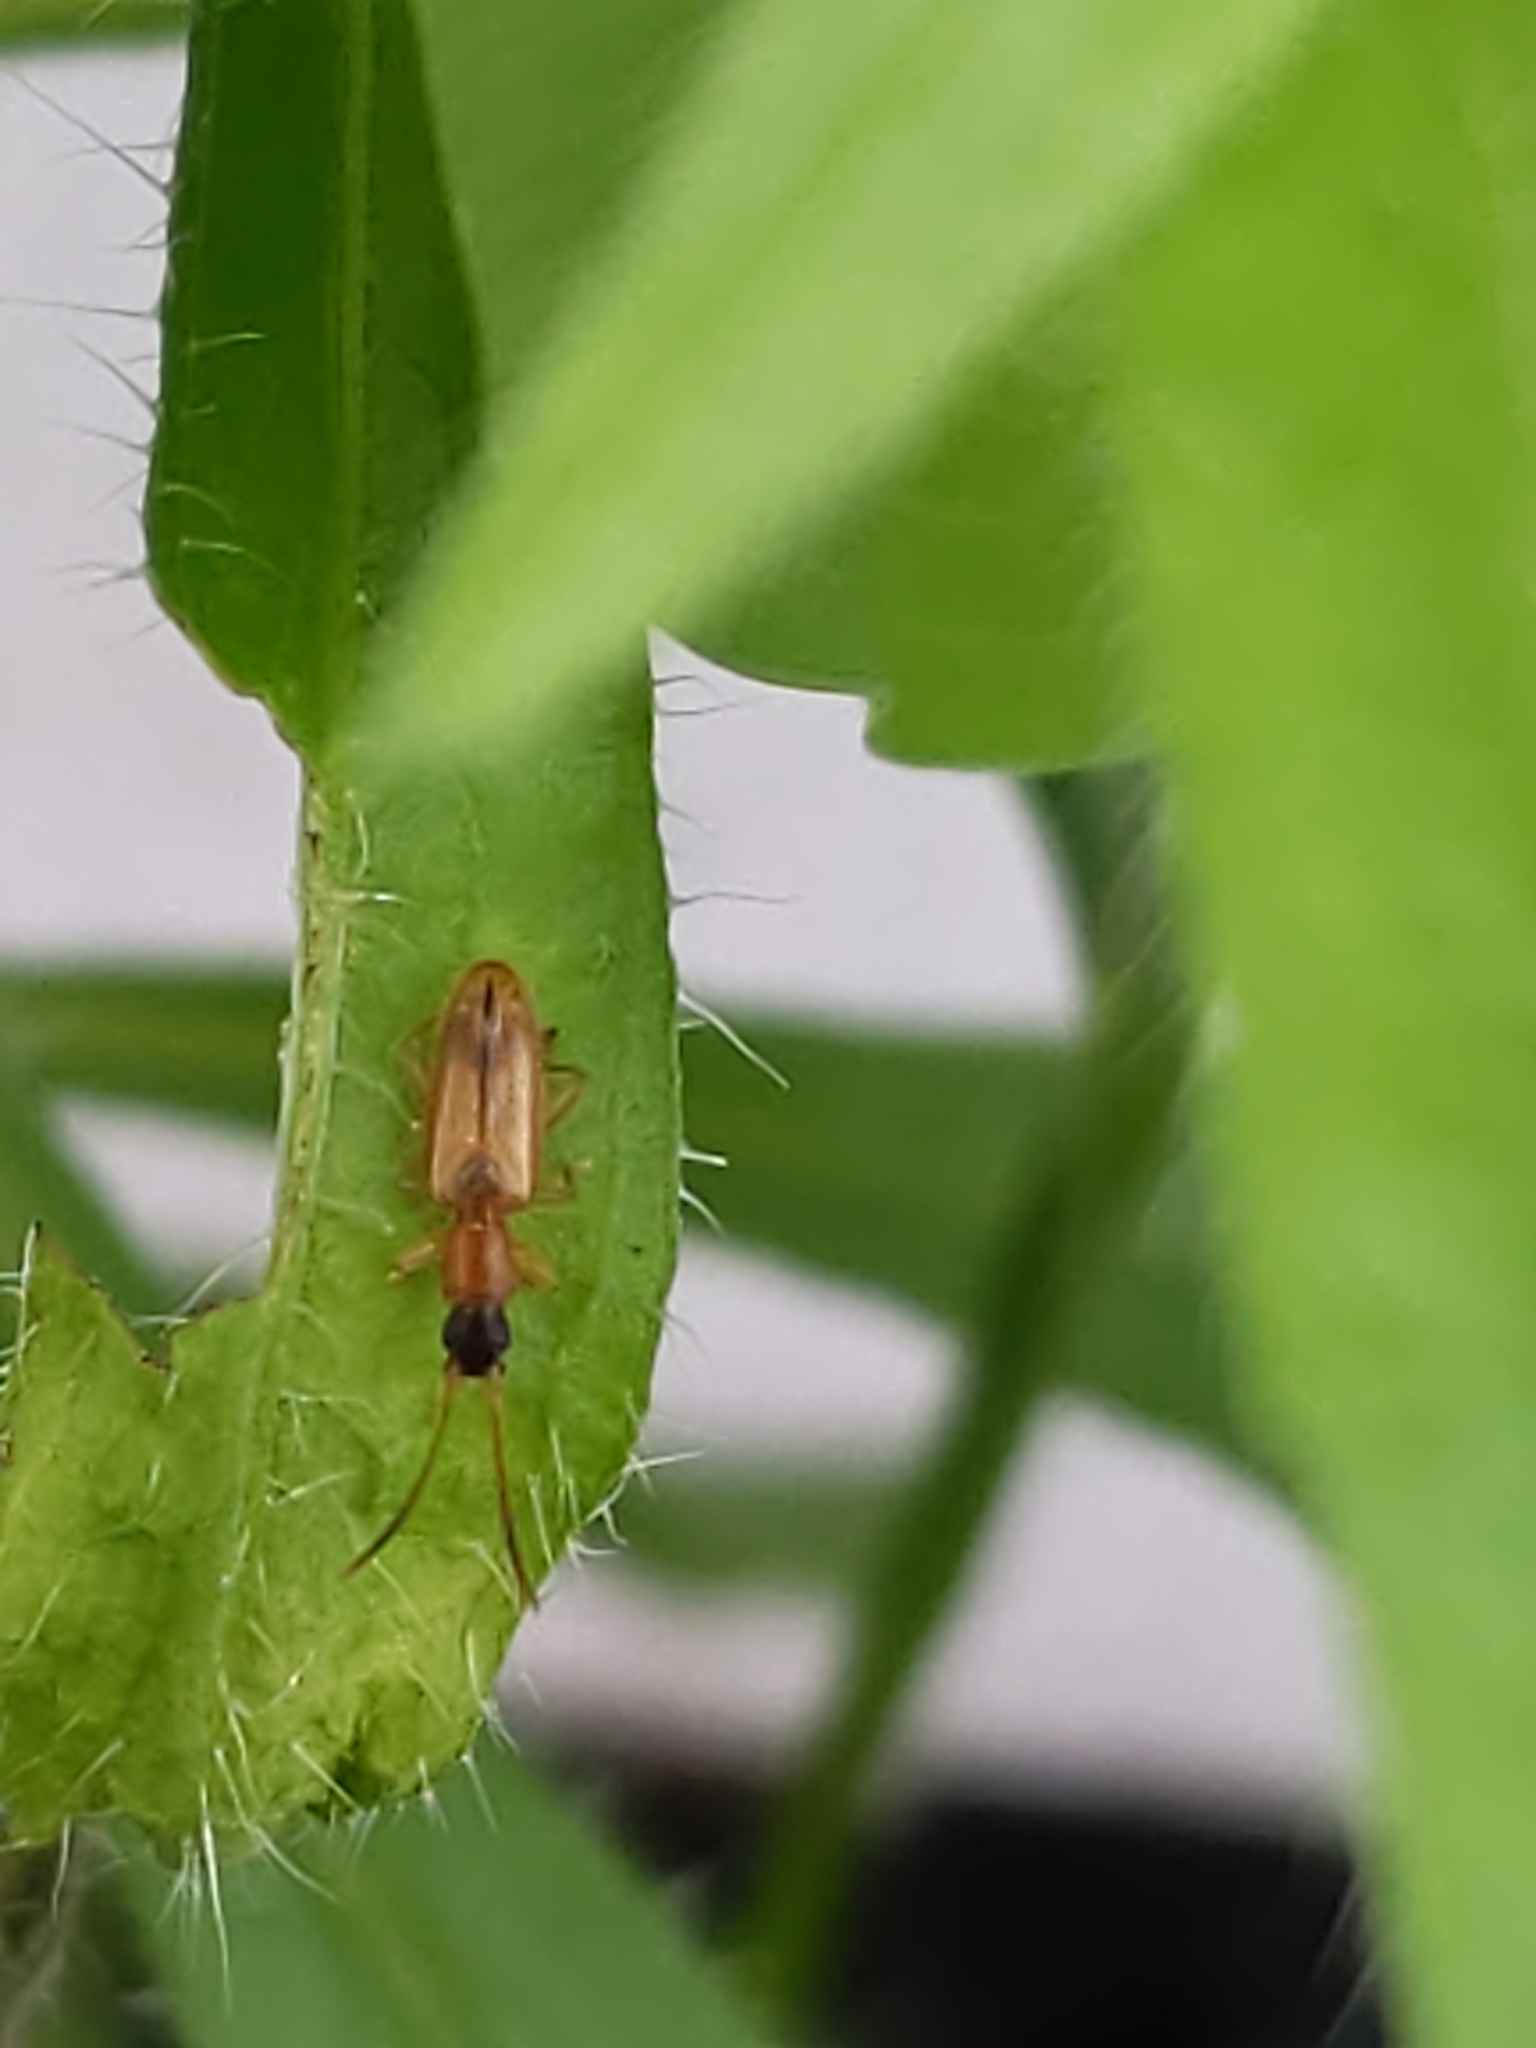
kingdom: Animalia
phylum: Arthropoda
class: Insecta
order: Coleoptera
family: Silvanidae
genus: Telephanus
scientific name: Telephanus velox
